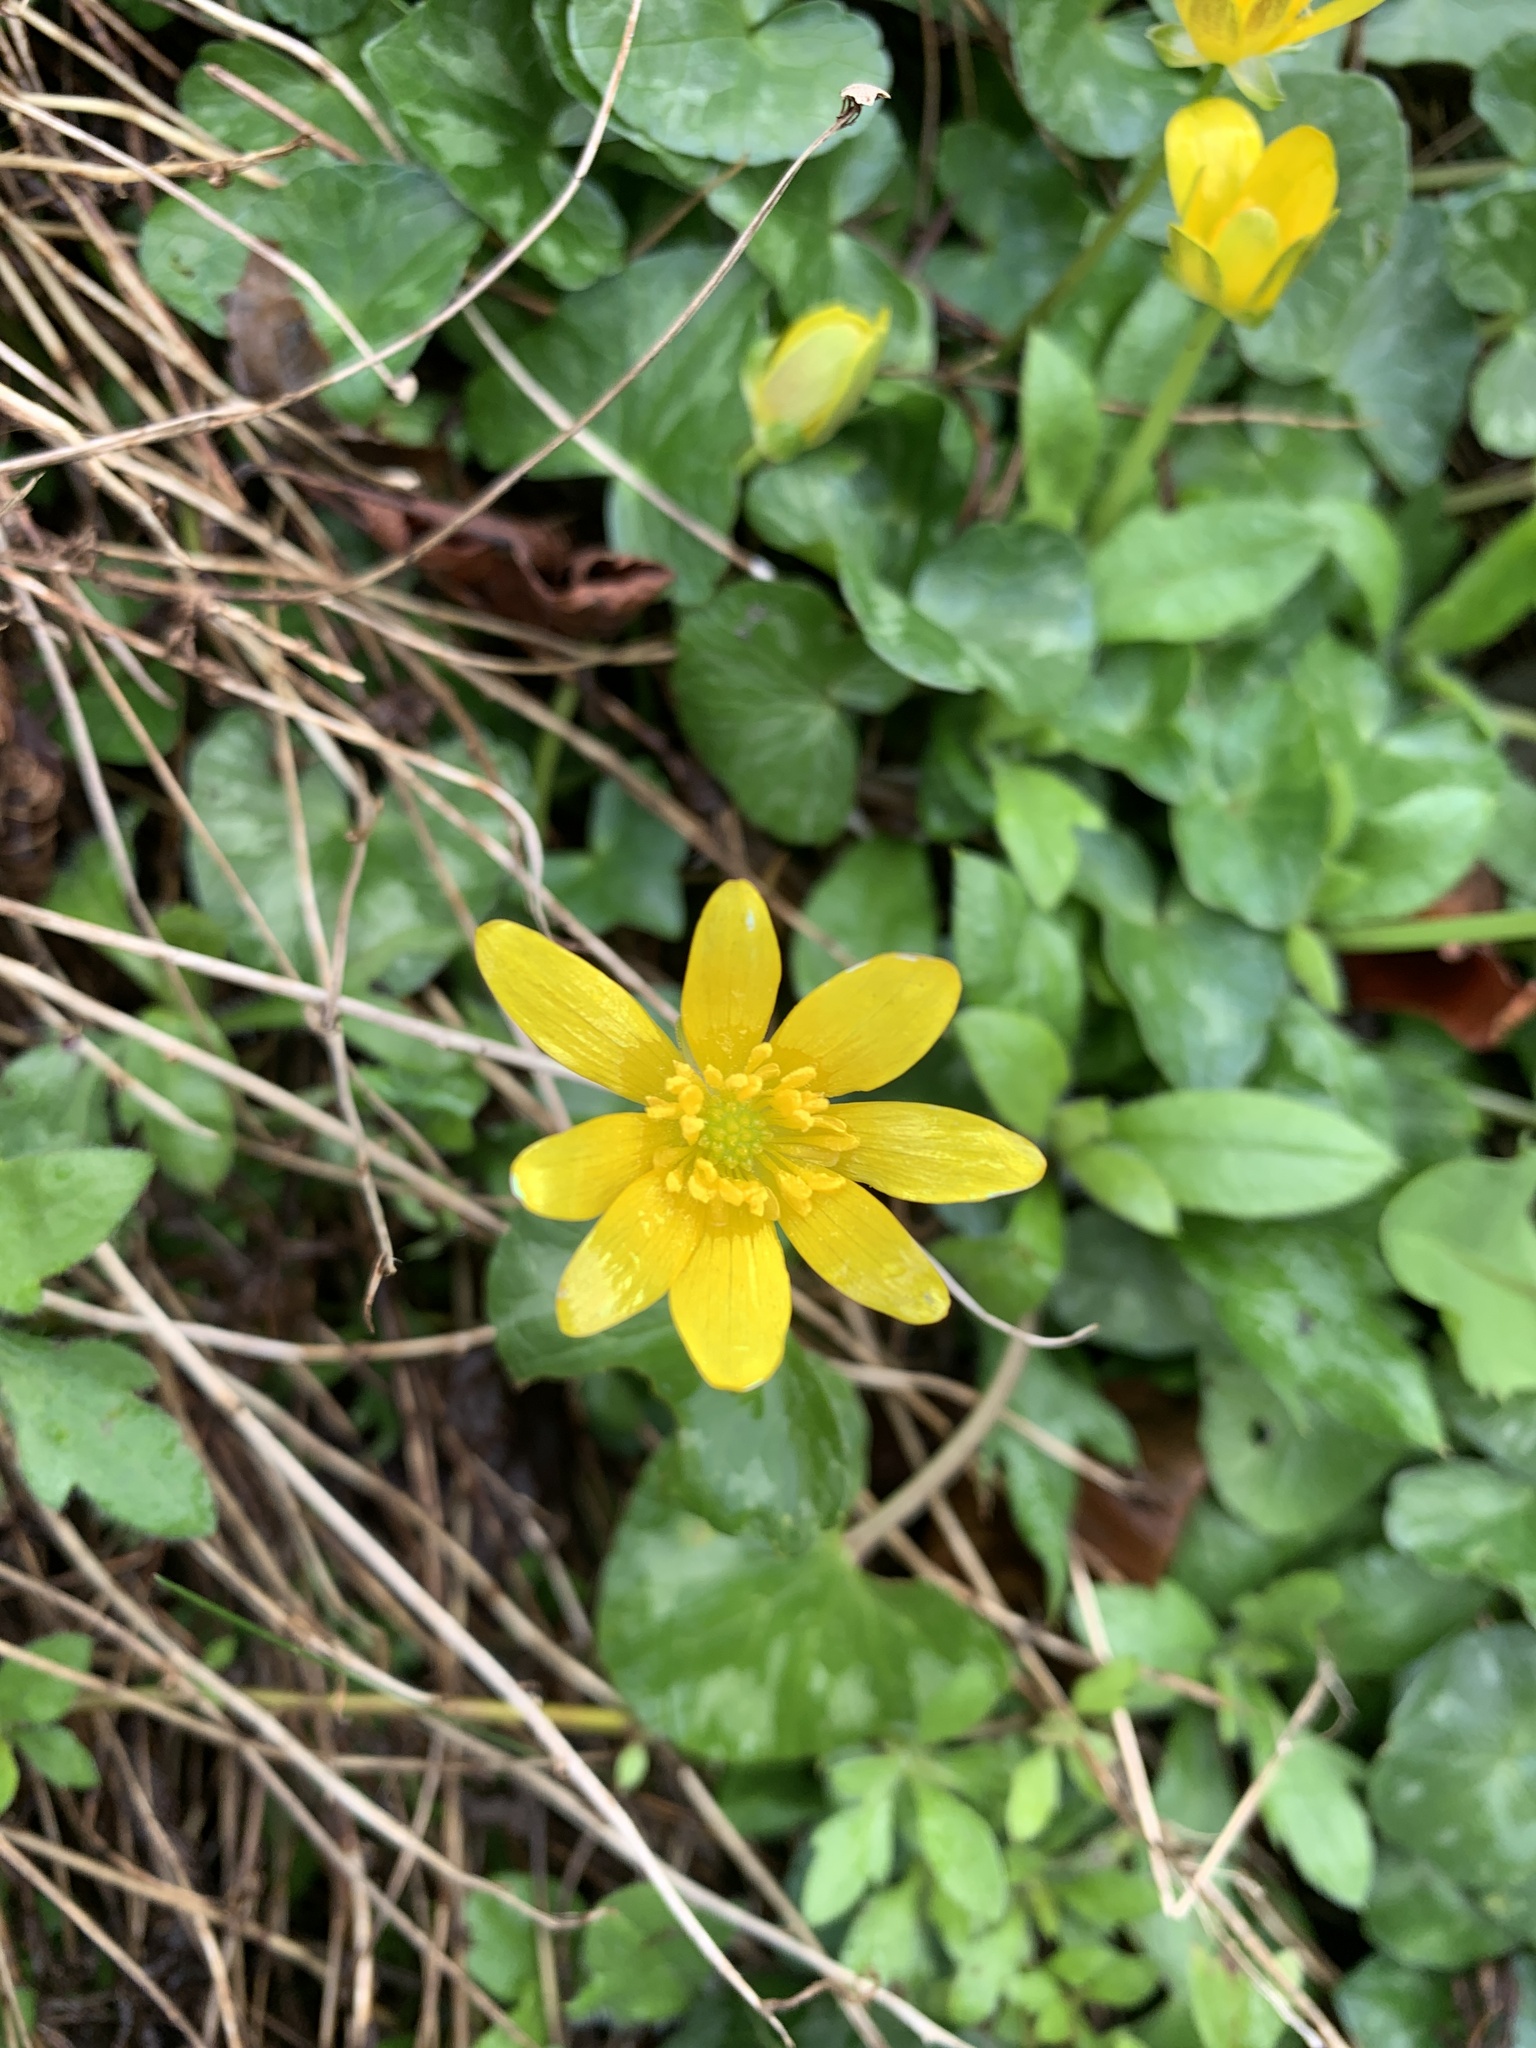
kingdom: Plantae
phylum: Tracheophyta
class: Magnoliopsida
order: Ranunculales
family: Ranunculaceae
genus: Ficaria
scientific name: Ficaria verna
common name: Lesser celandine
